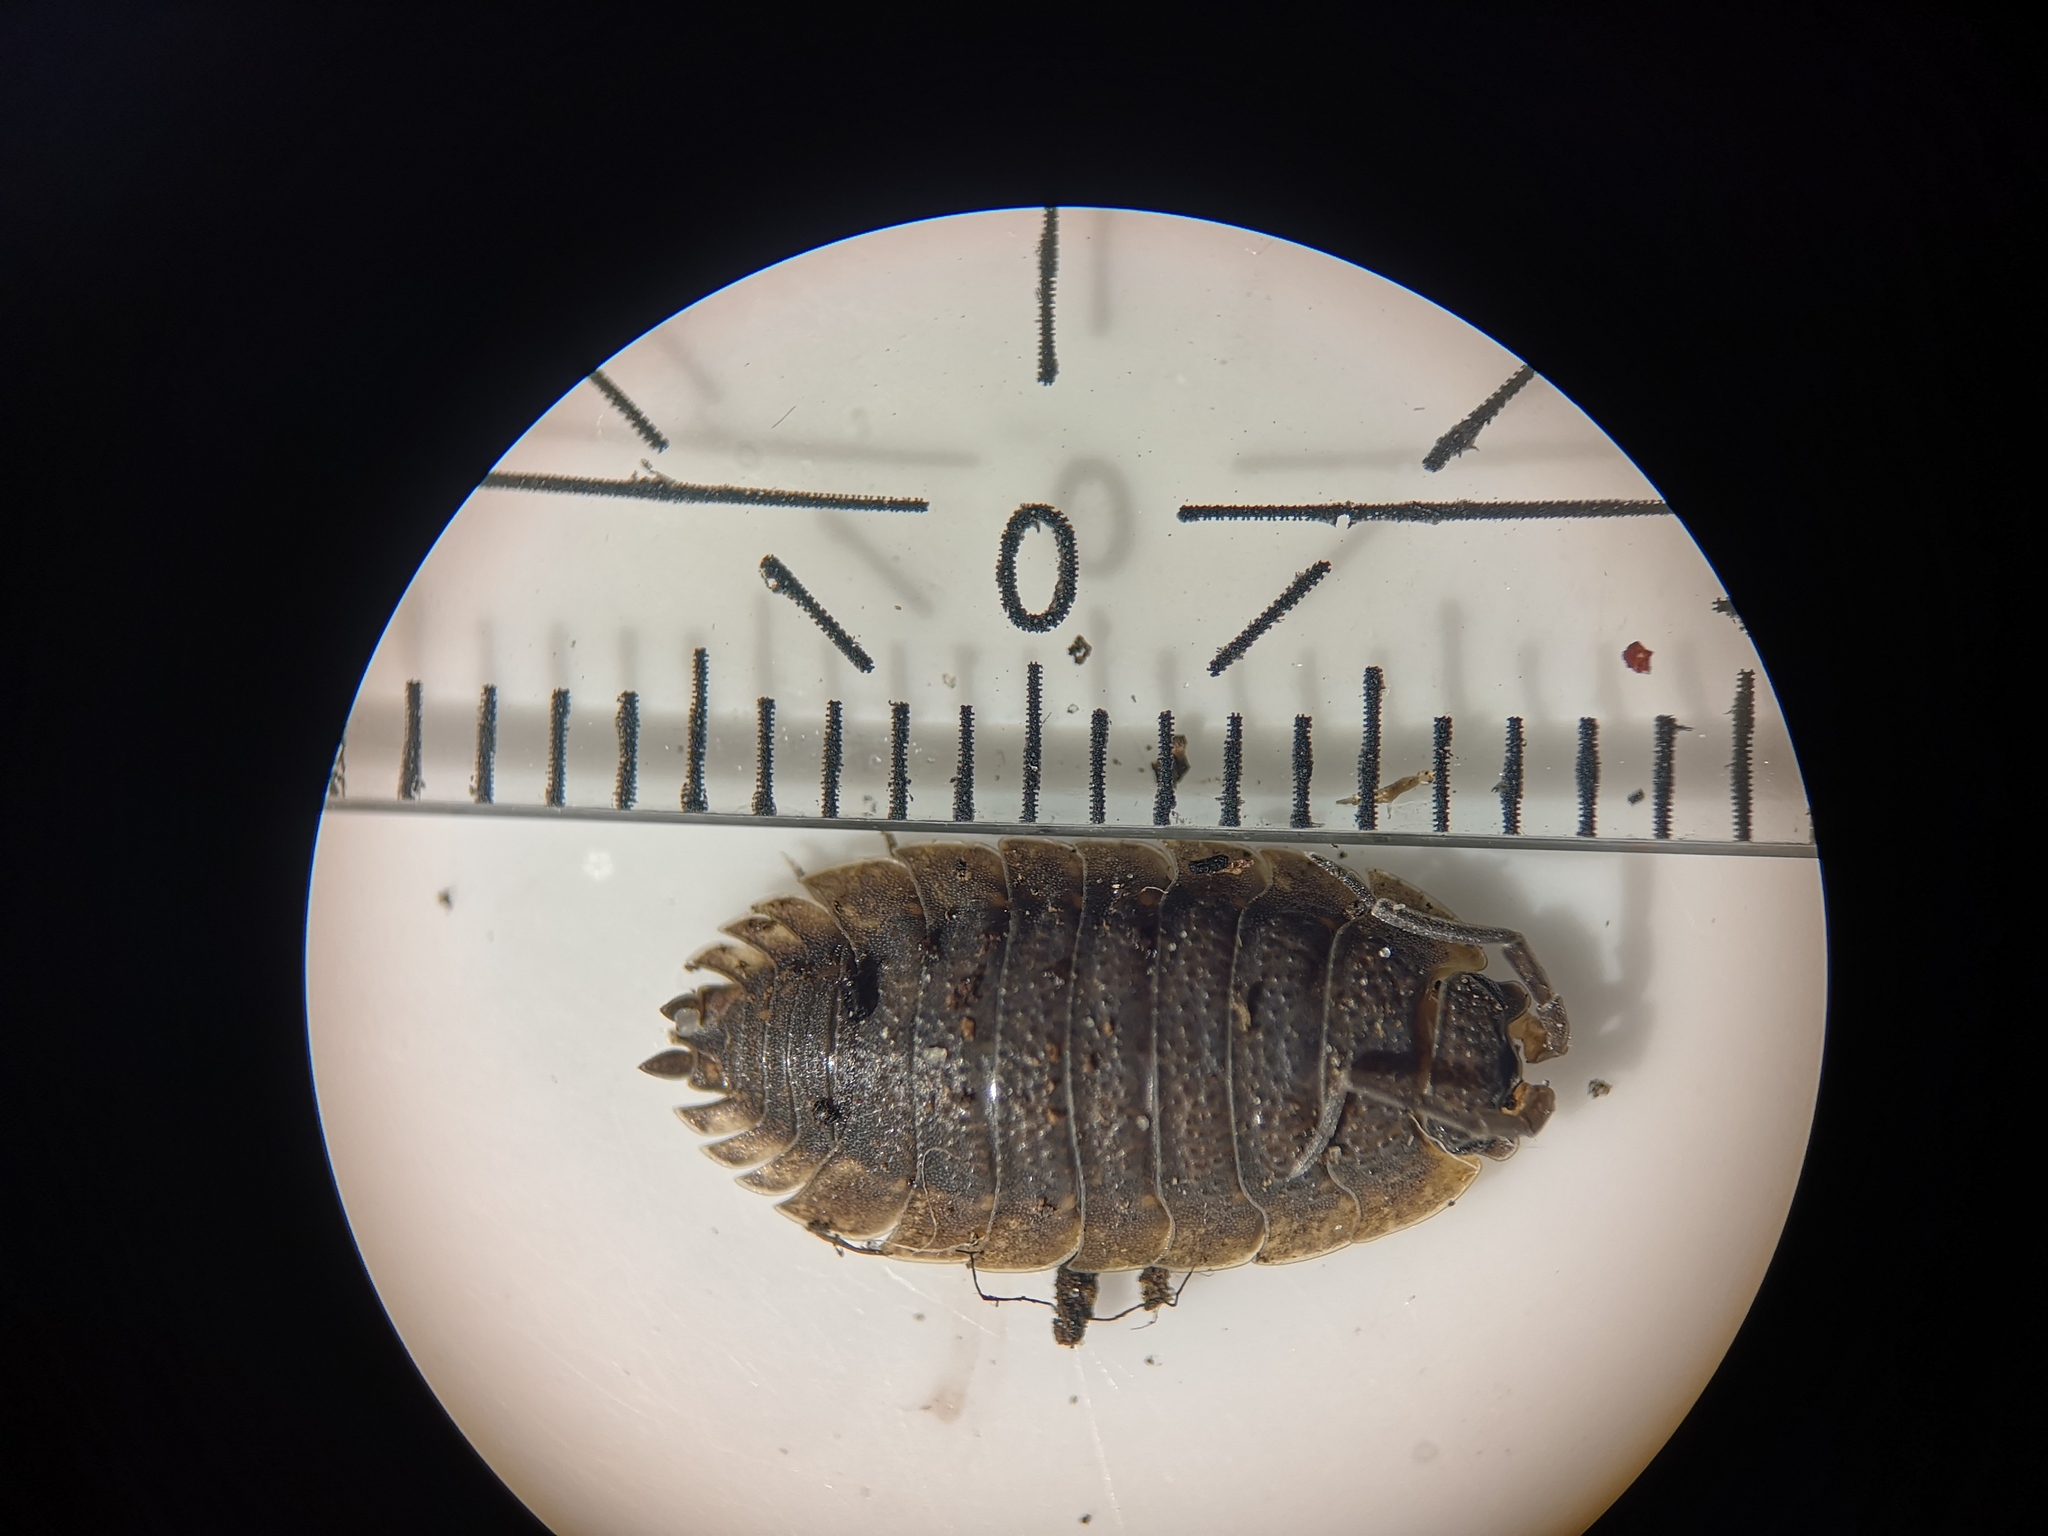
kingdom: Animalia
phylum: Arthropoda
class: Malacostraca
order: Isopoda
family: Porcellionidae
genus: Porcellio
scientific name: Porcellio scaber
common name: Common rough woodlouse
